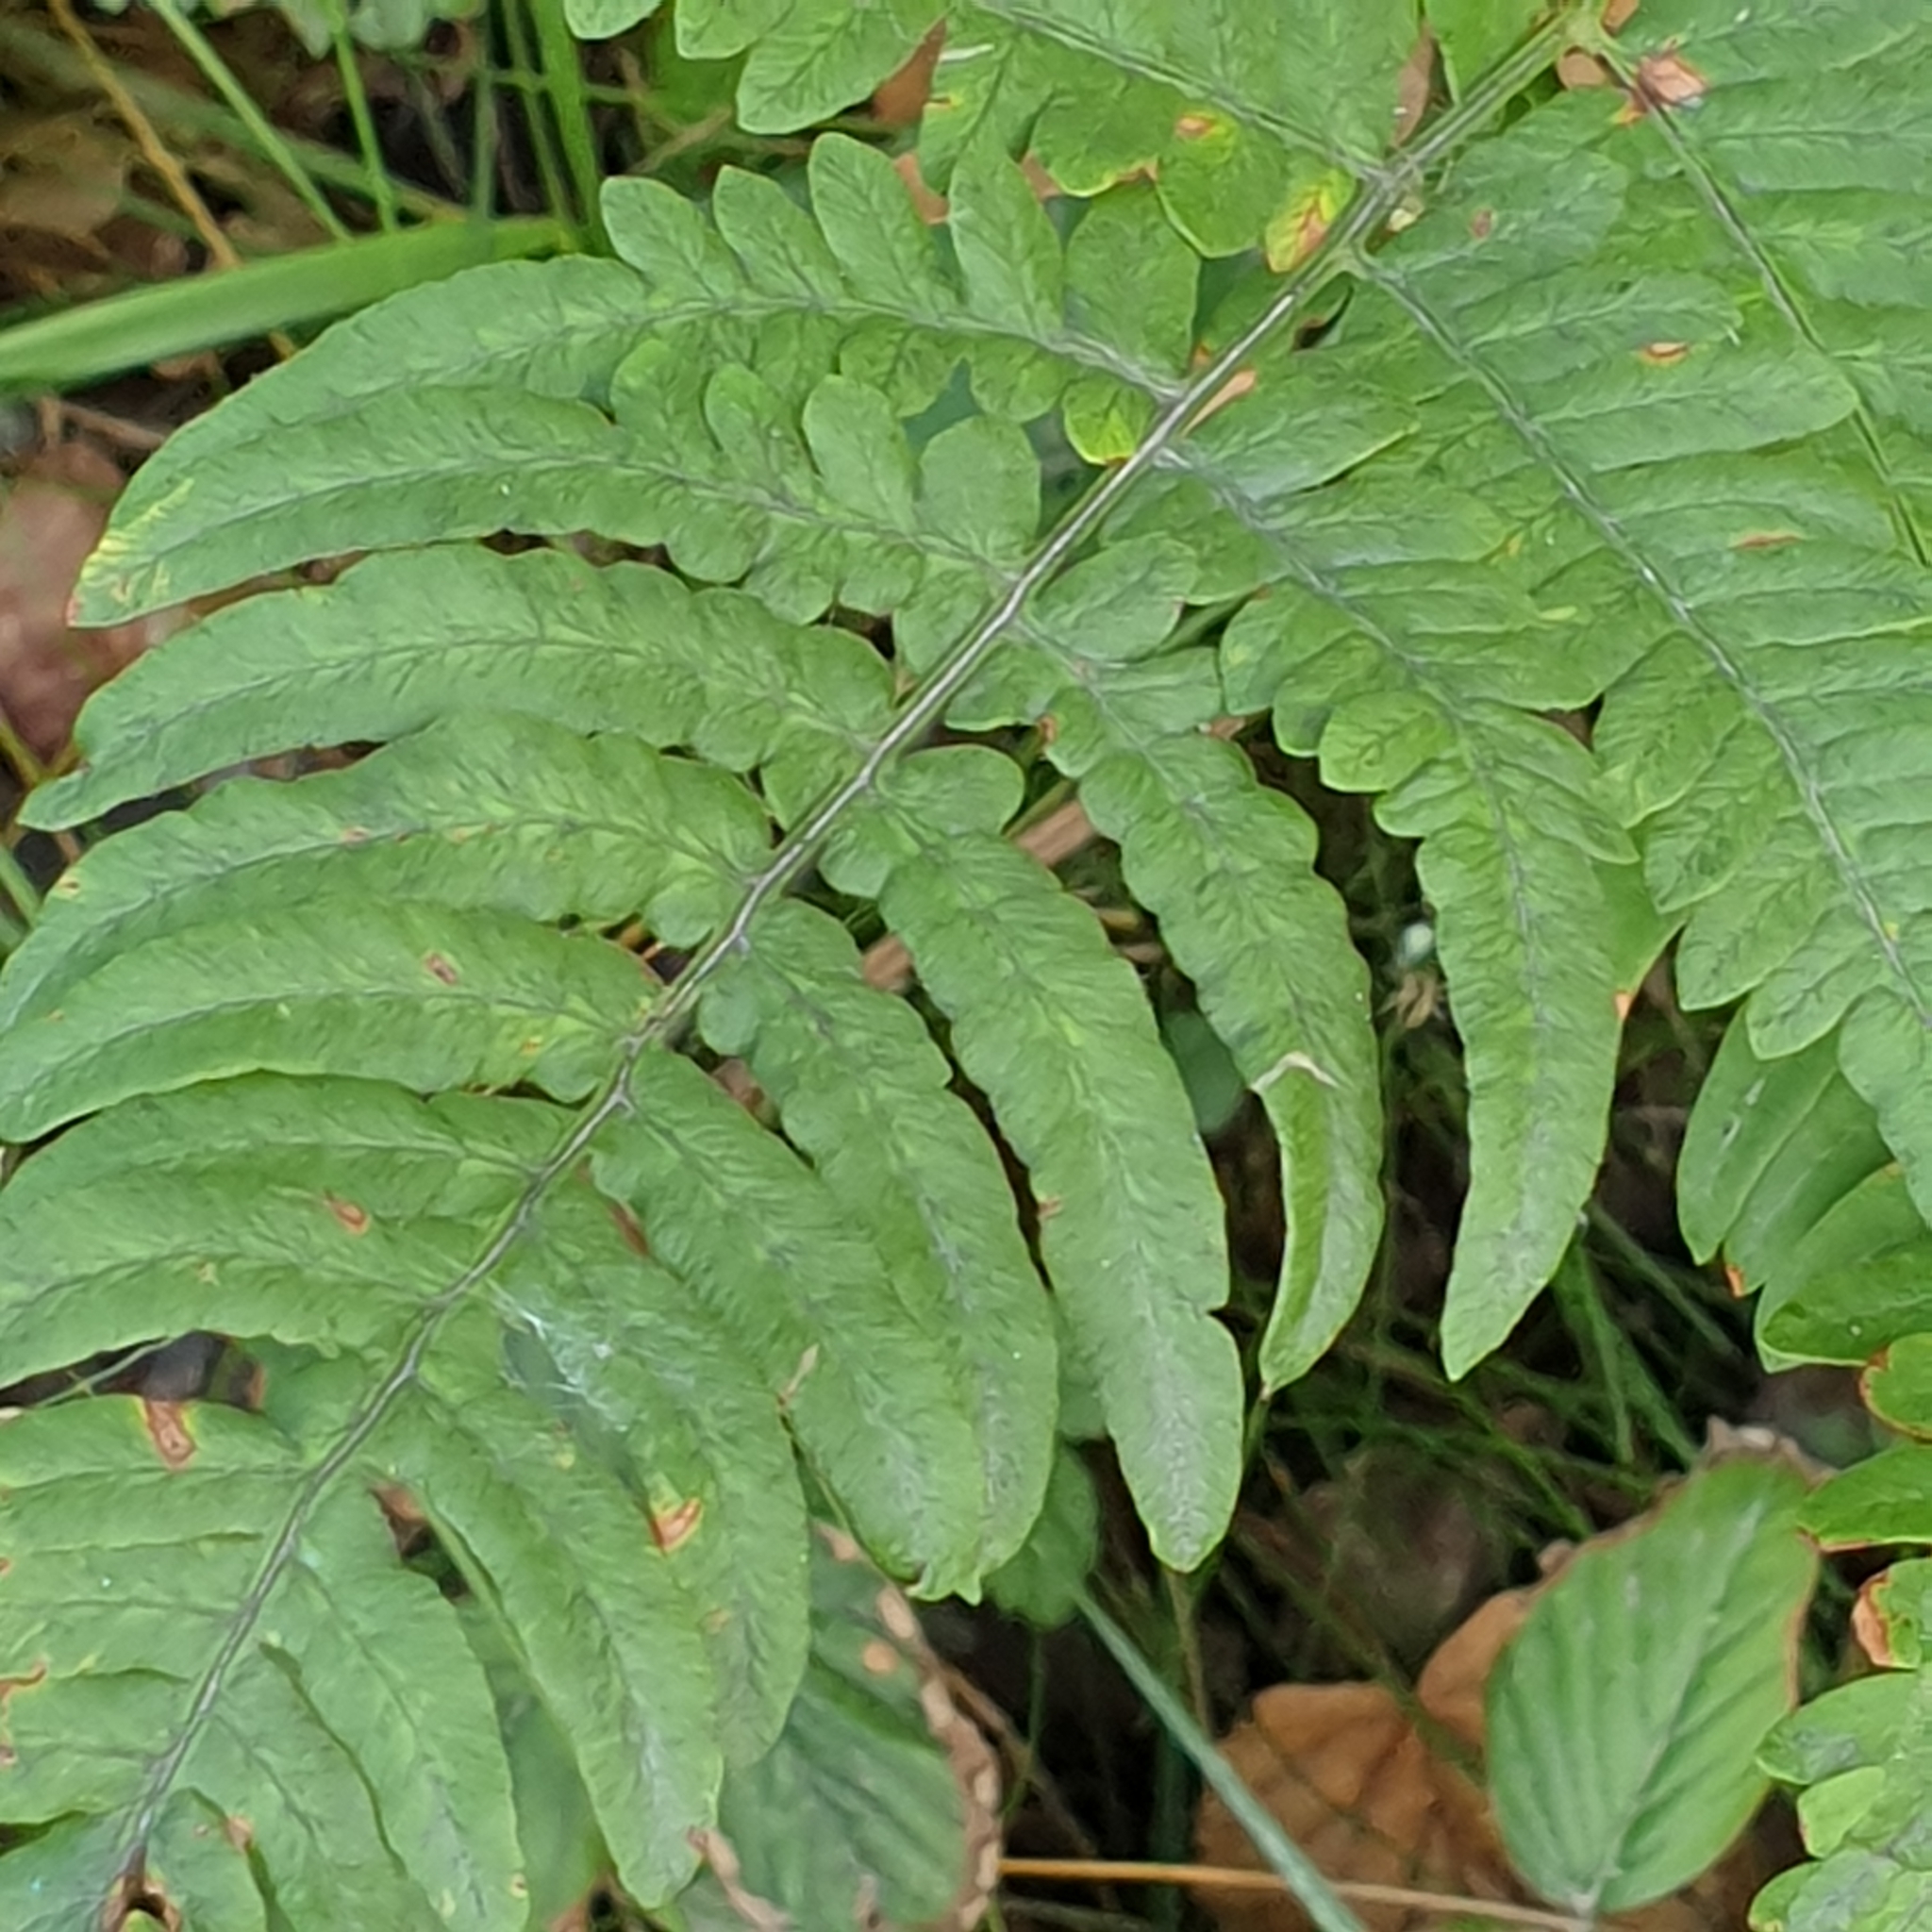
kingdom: Plantae
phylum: Tracheophyta
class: Polypodiopsida
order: Polypodiales
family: Dennstaedtiaceae
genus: Pteridium
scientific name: Pteridium aquilinum
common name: Bracken
